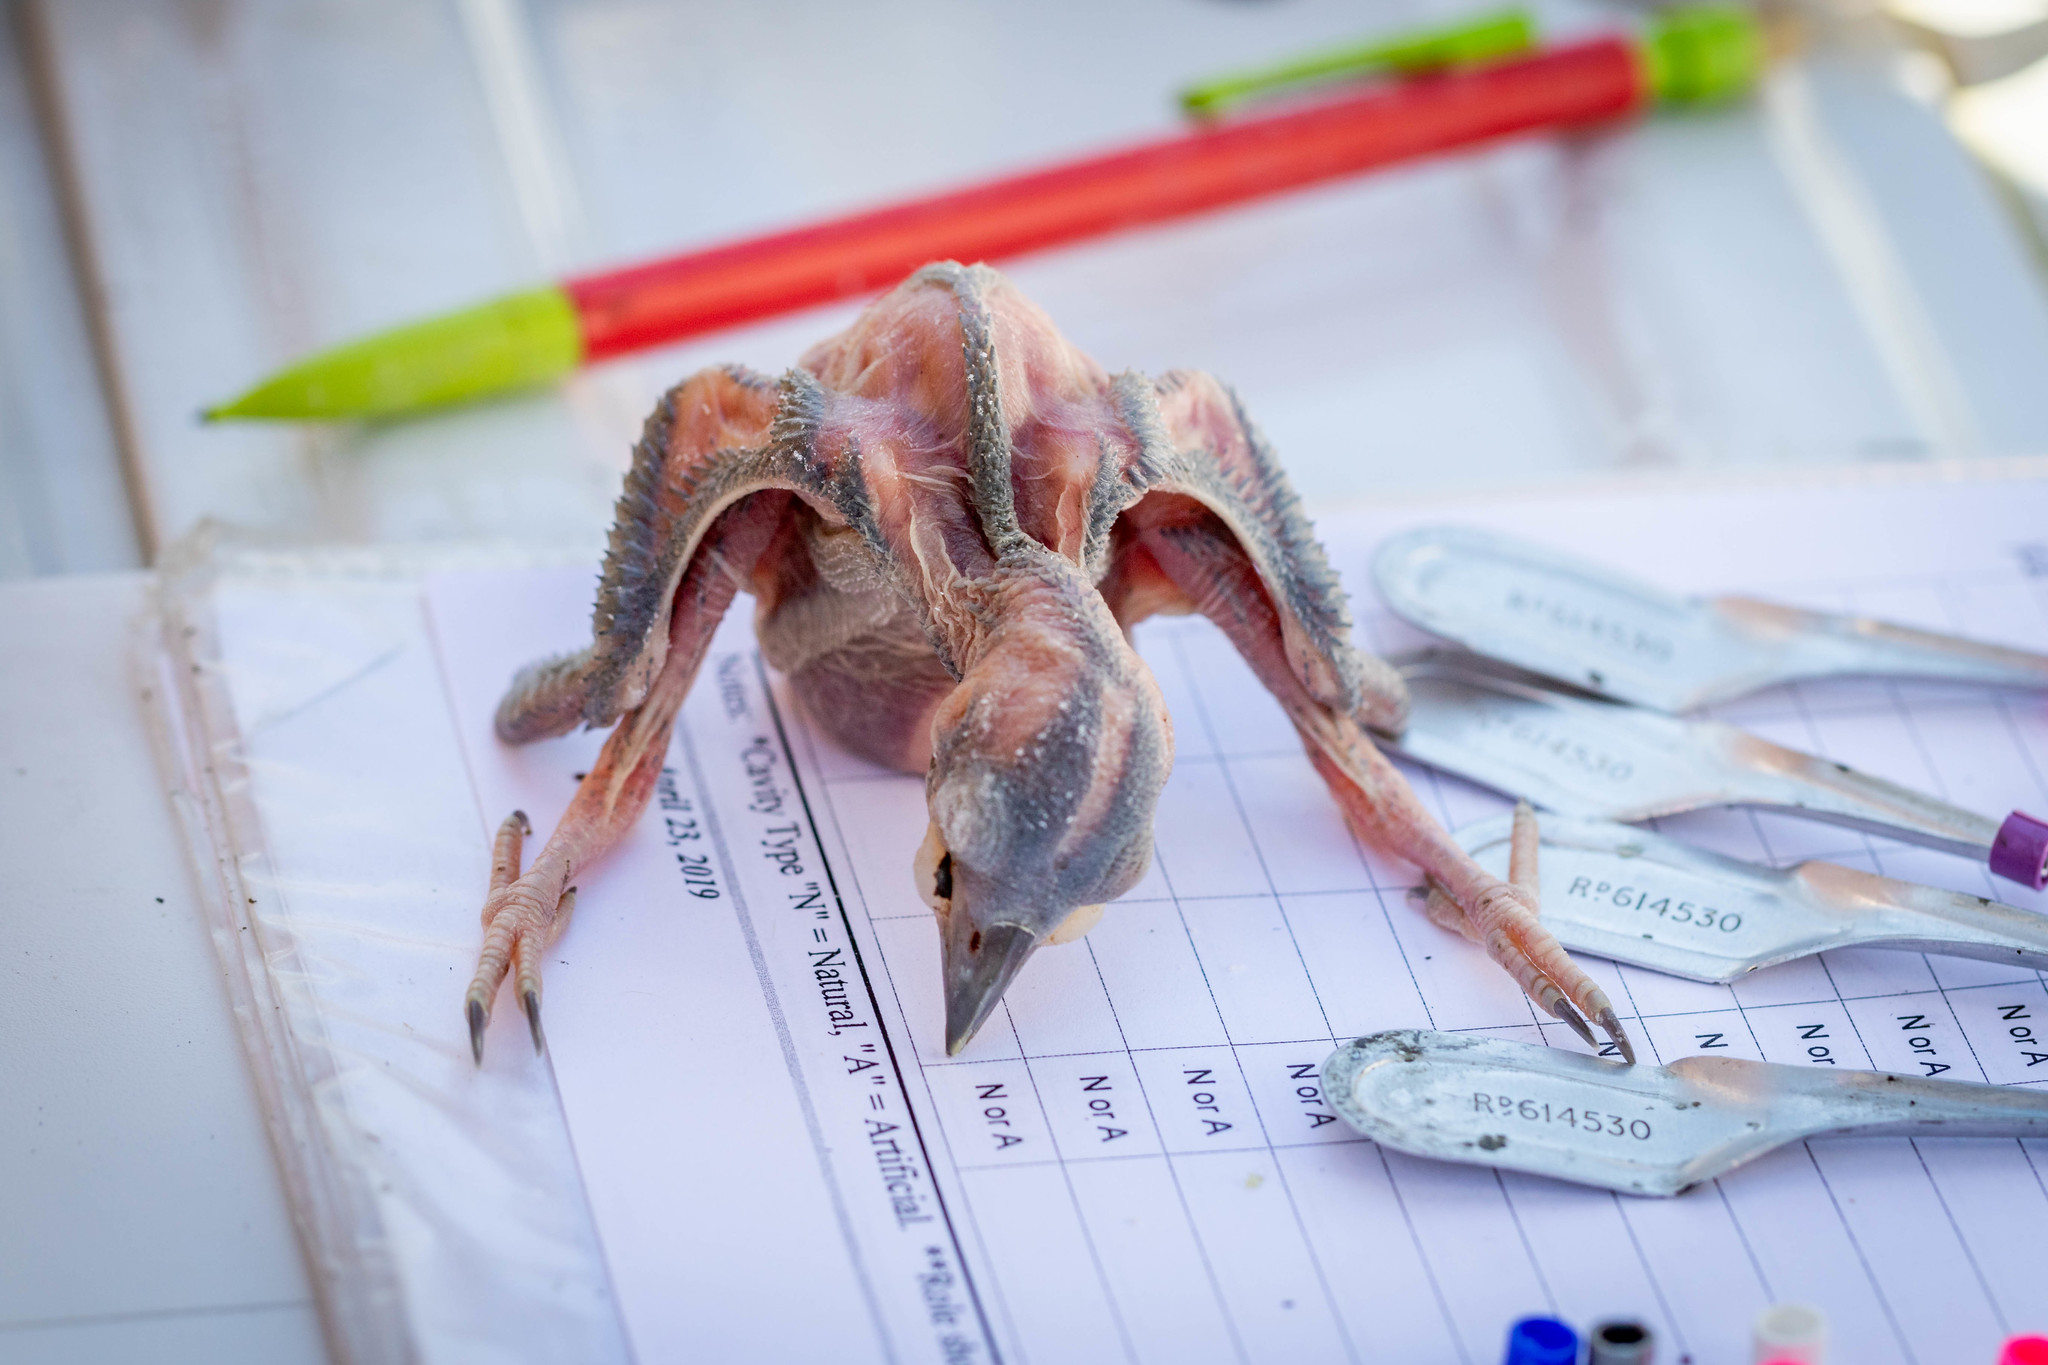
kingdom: Animalia
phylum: Chordata
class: Aves
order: Piciformes
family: Picidae
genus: Leuconotopicus
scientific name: Leuconotopicus borealis
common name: Red-cockaded woodpecker
